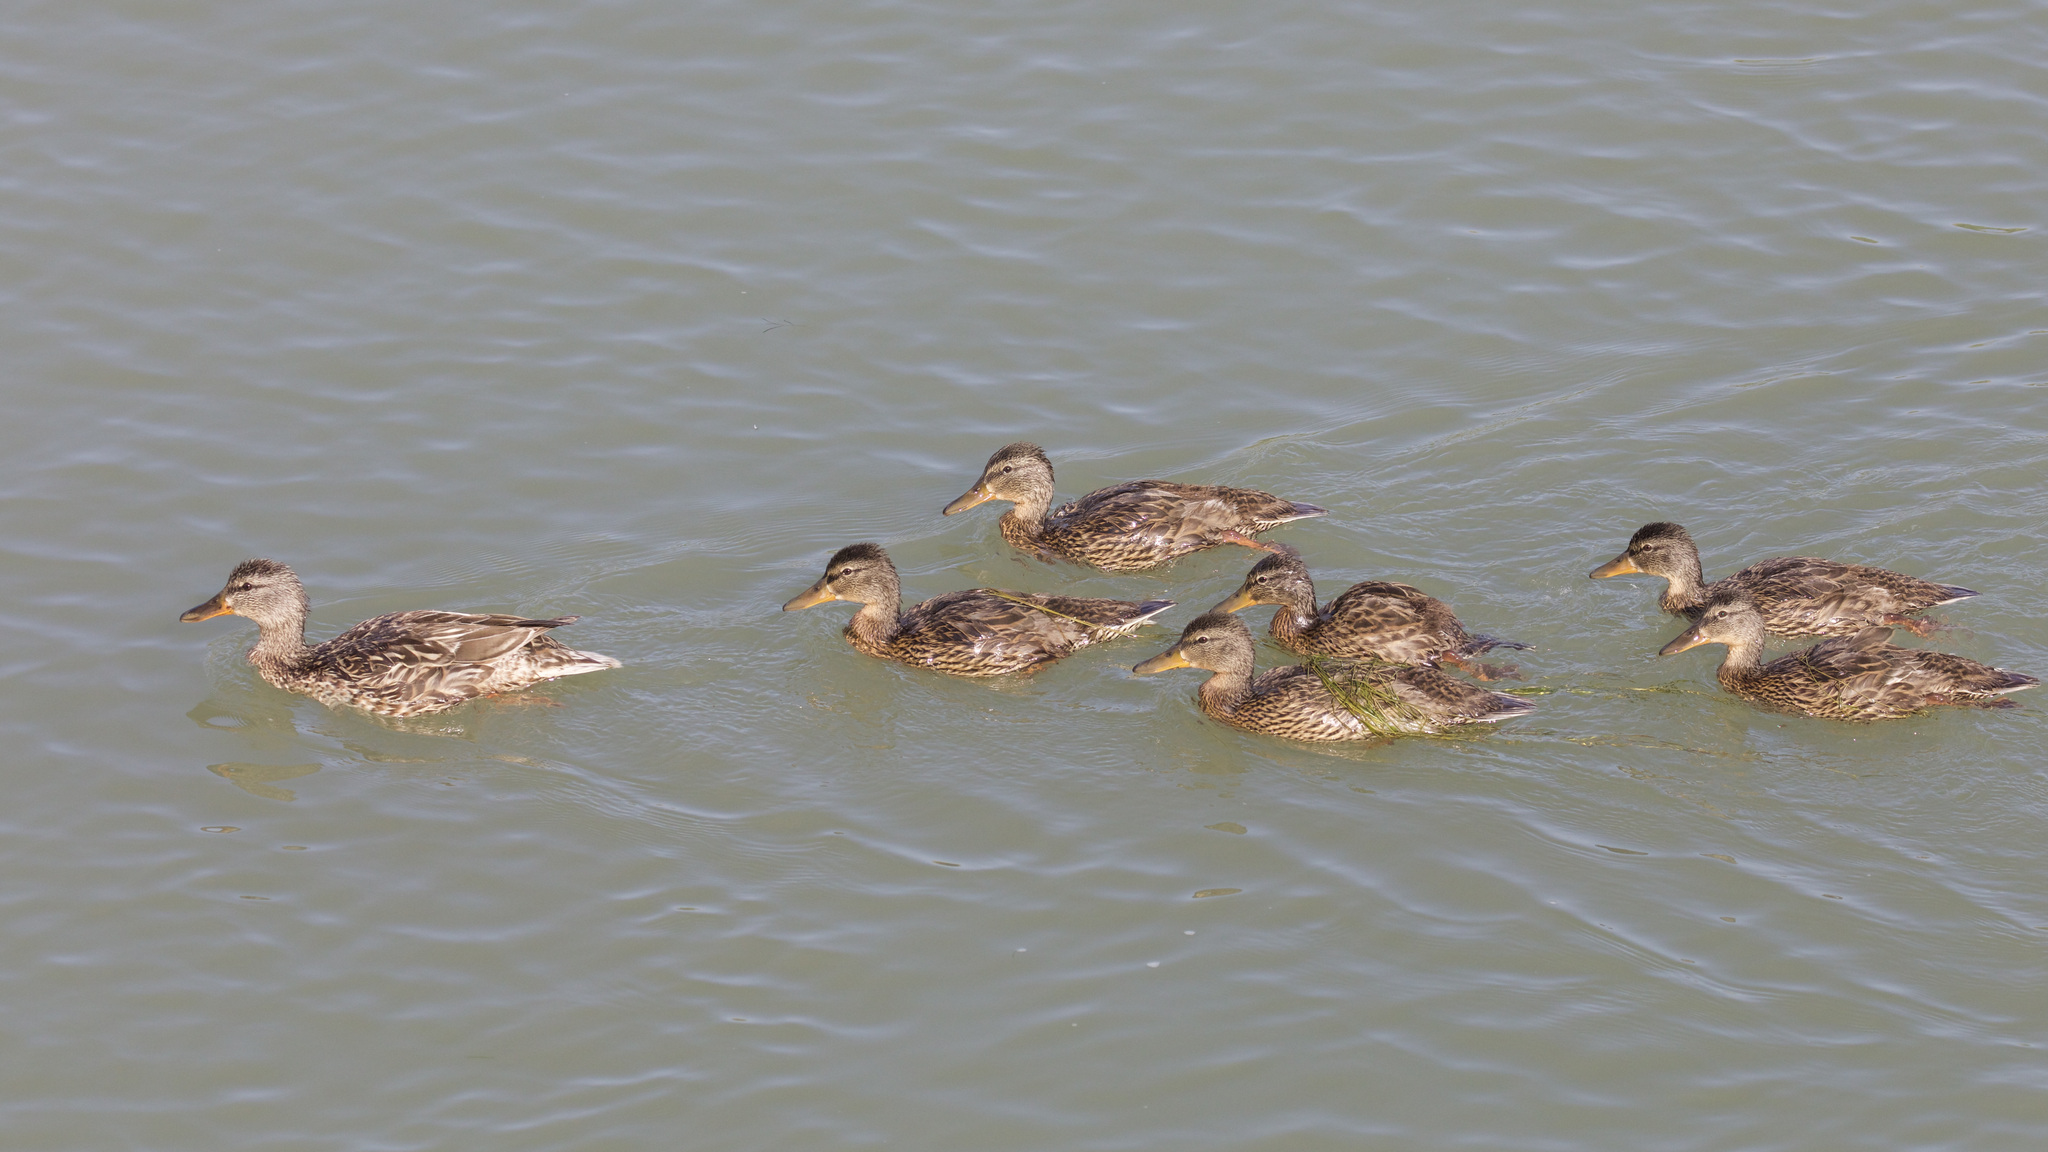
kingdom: Animalia
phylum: Chordata
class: Aves
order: Anseriformes
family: Anatidae
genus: Anas
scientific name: Anas platyrhynchos
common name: Mallard
